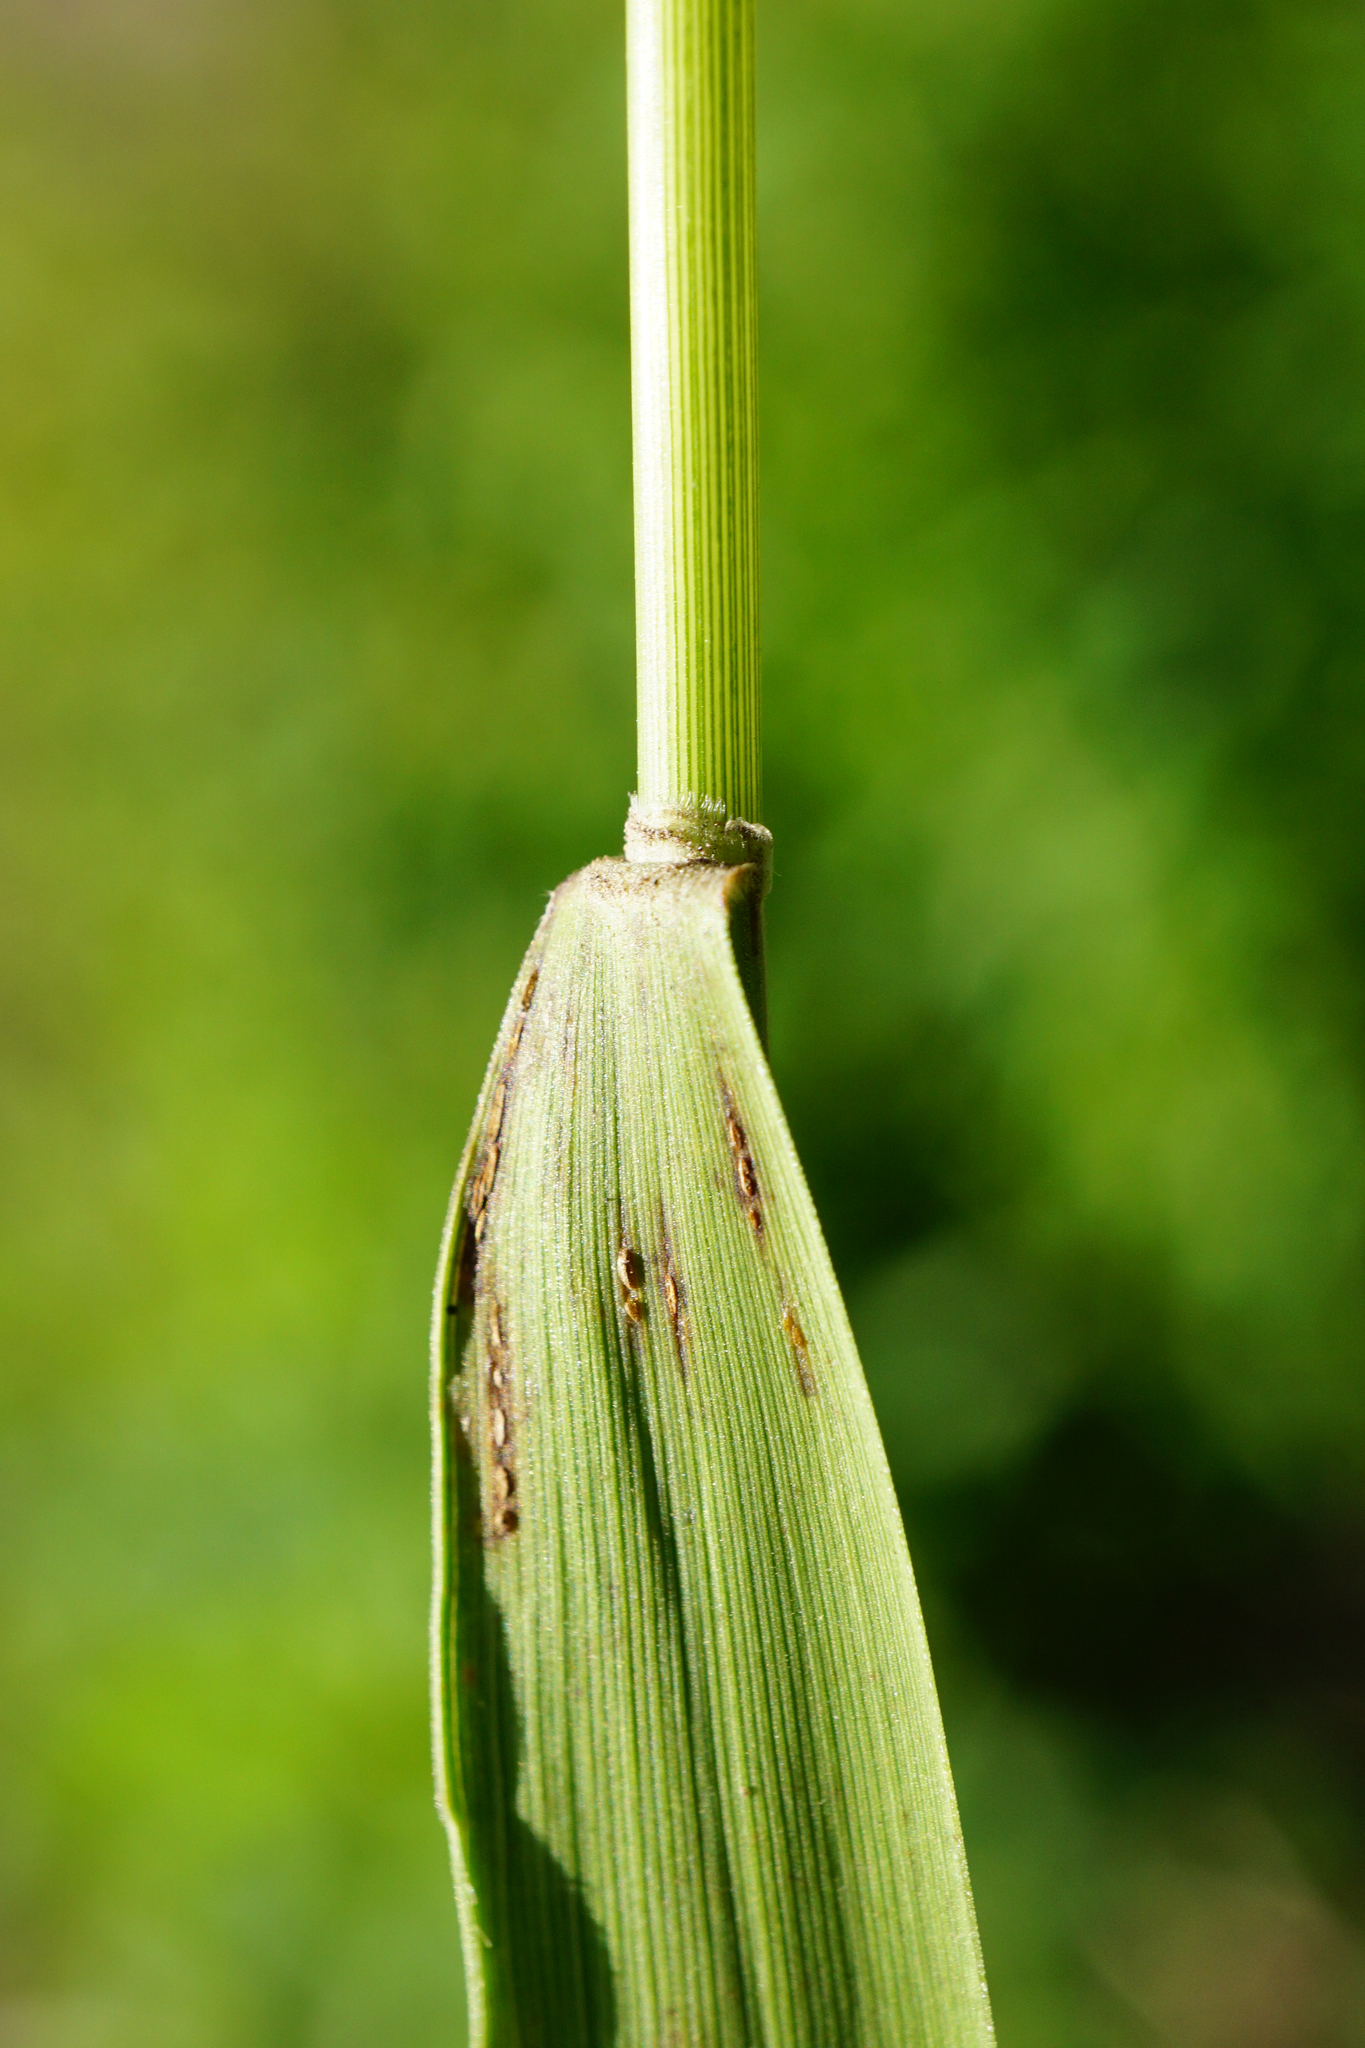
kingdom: Plantae
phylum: Tracheophyta
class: Liliopsida
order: Poales
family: Poaceae
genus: Brachypodium
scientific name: Brachypodium pinnatum
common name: Tor grass
